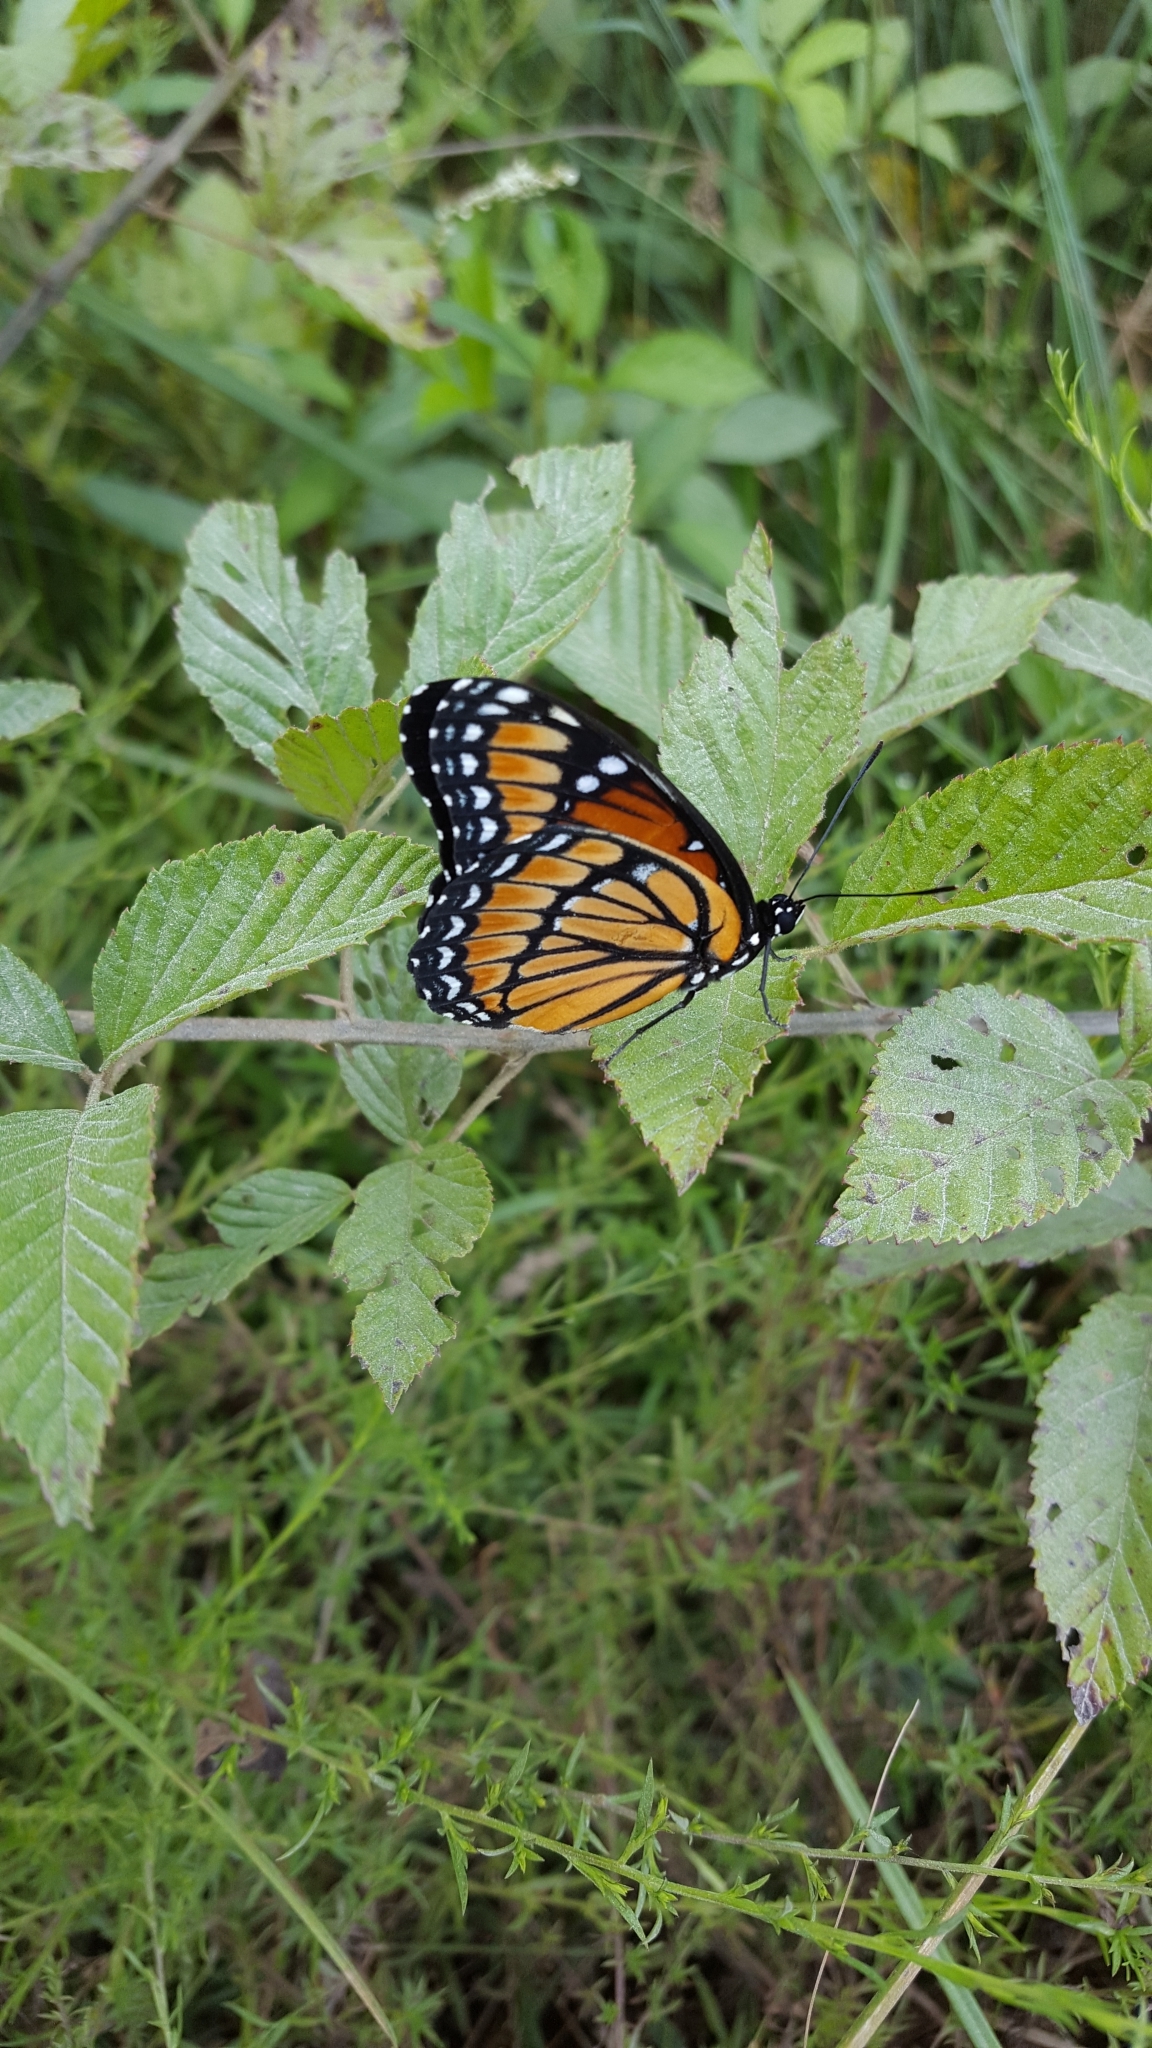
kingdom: Animalia
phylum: Arthropoda
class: Insecta
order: Lepidoptera
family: Nymphalidae
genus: Limenitis
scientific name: Limenitis archippus
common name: Viceroy
